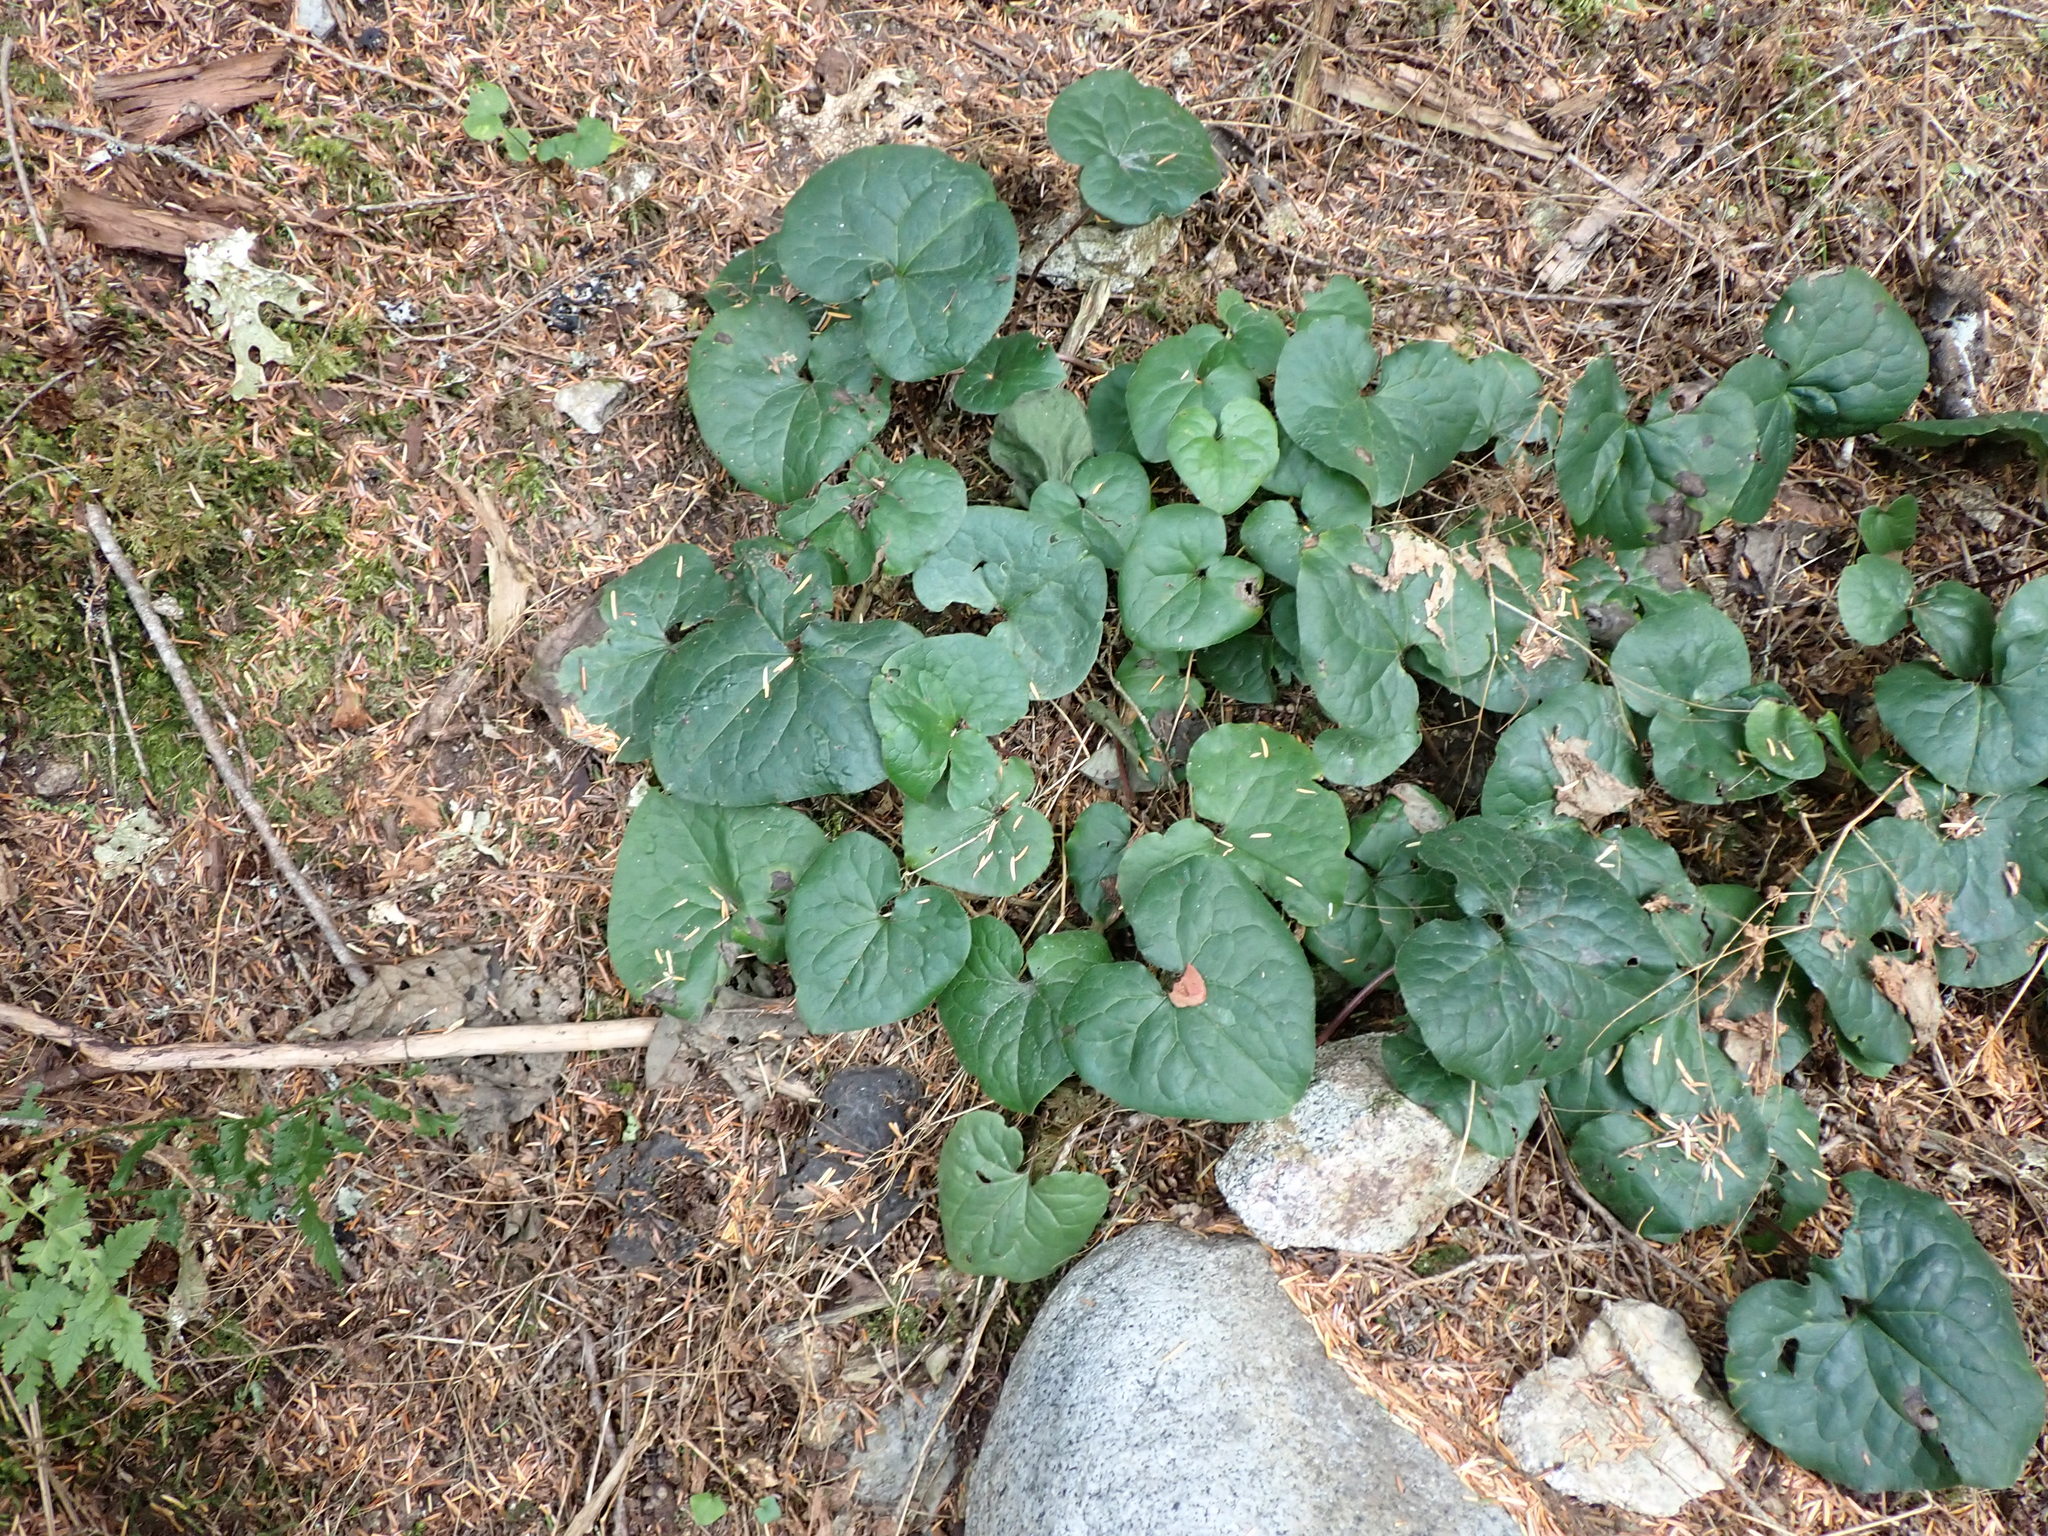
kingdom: Plantae
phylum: Tracheophyta
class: Magnoliopsida
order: Piperales
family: Aristolochiaceae
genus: Asarum
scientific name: Asarum caudatum
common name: Wild ginger
